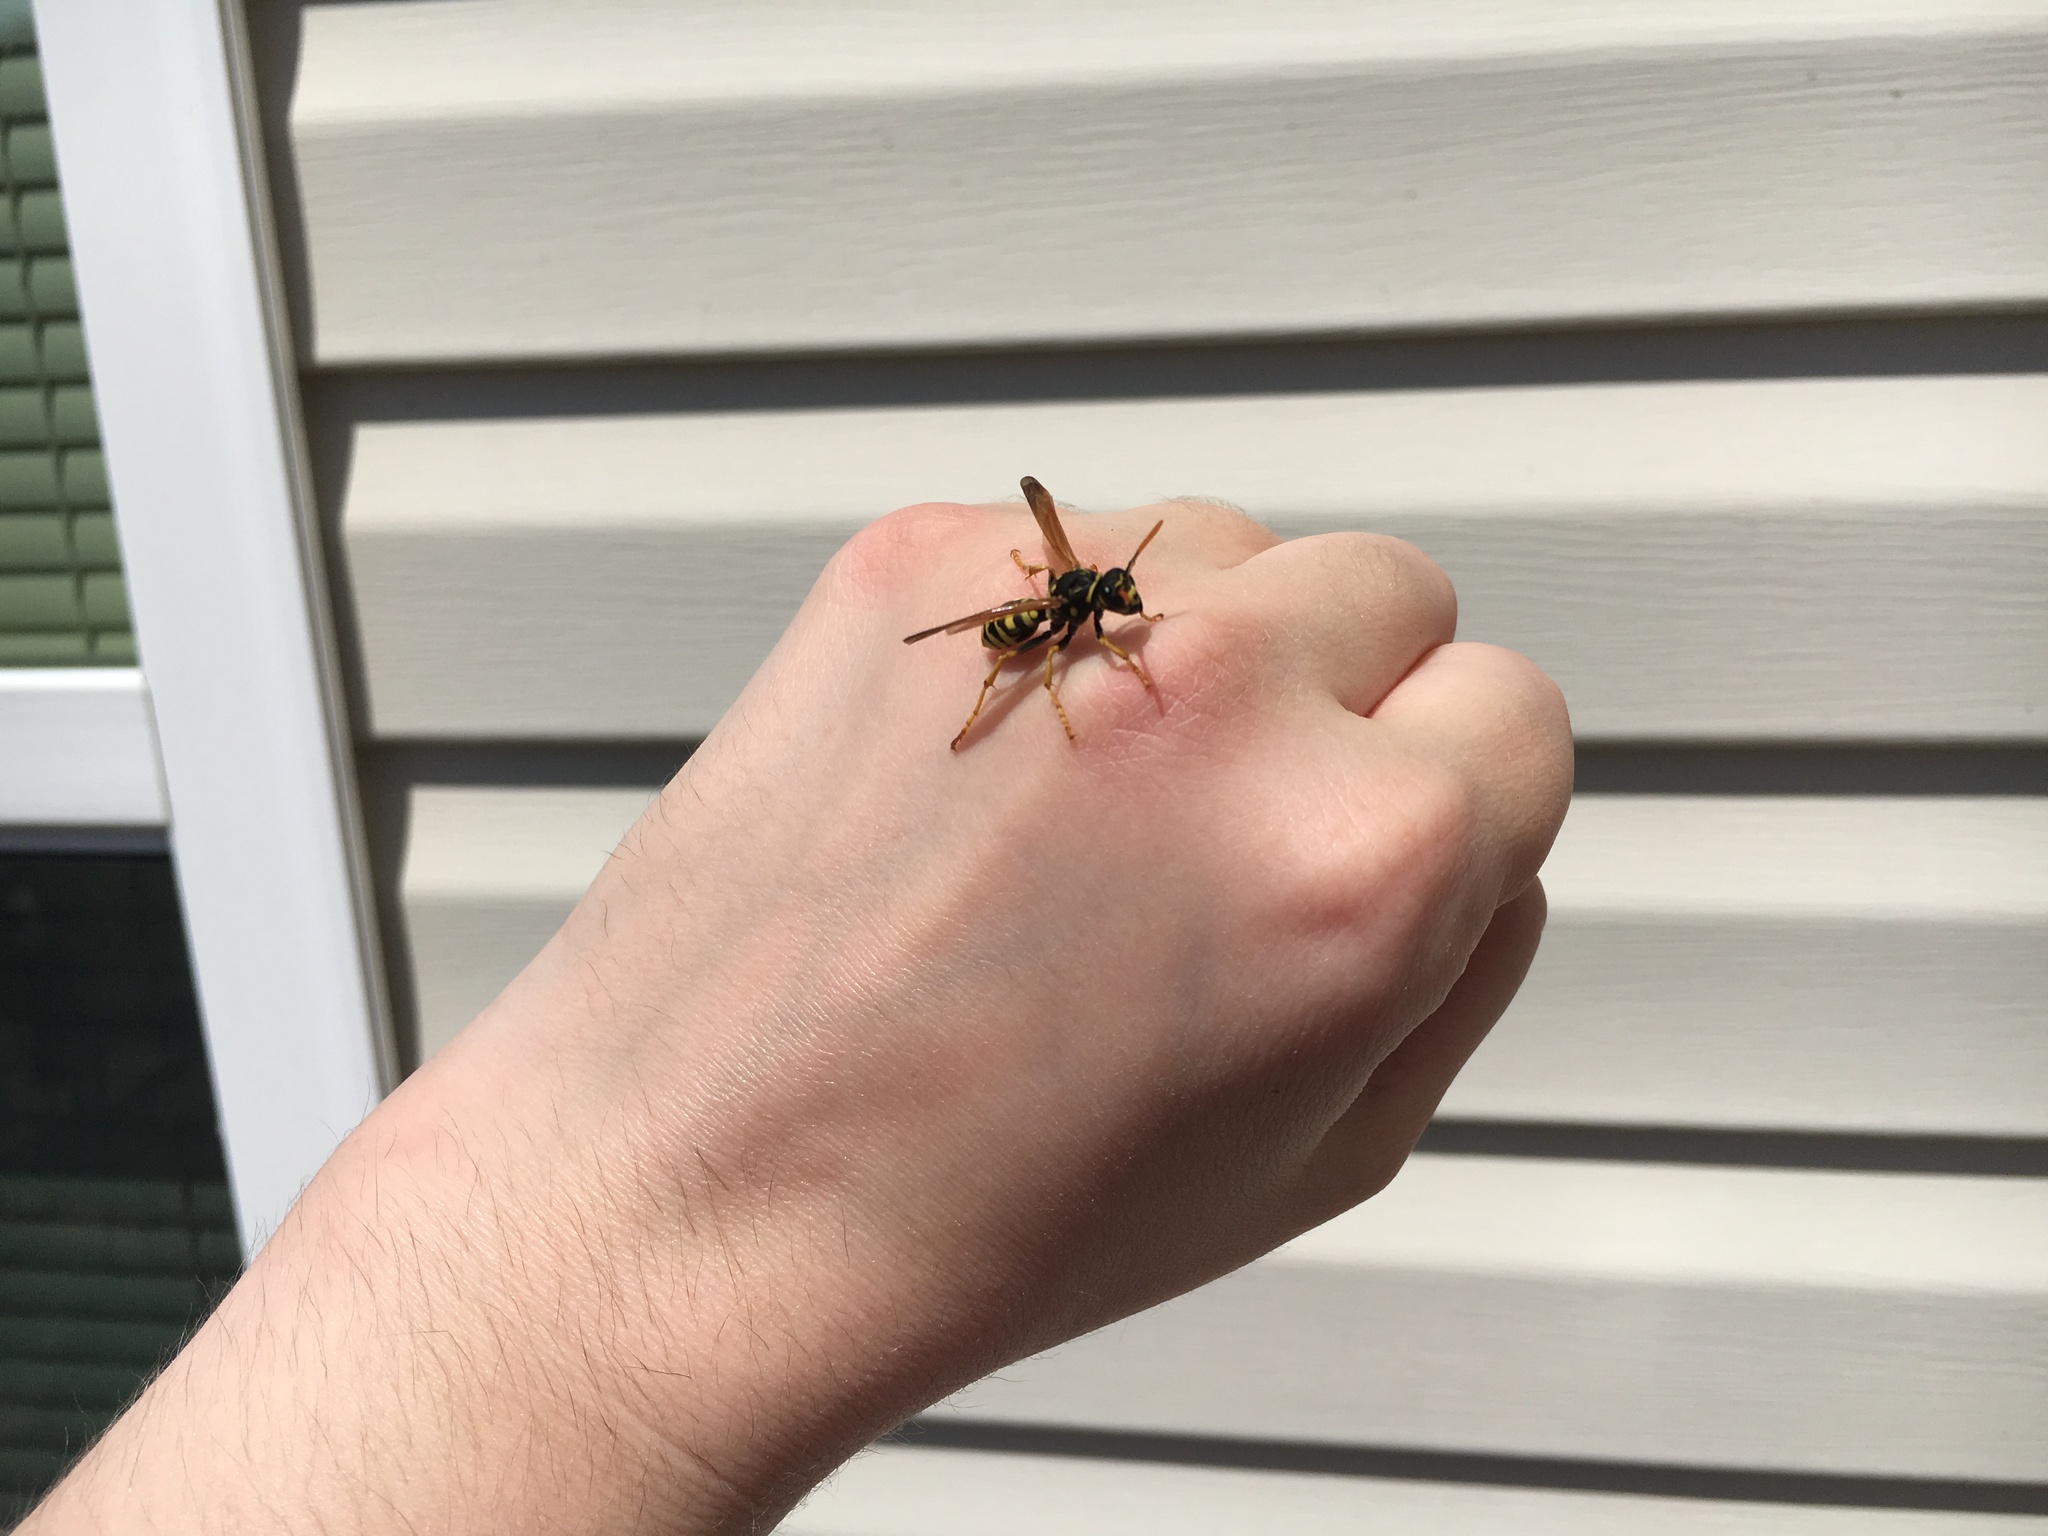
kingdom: Animalia
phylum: Arthropoda
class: Insecta
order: Hymenoptera
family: Eumenidae
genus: Polistes
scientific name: Polistes dominula
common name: Paper wasp
